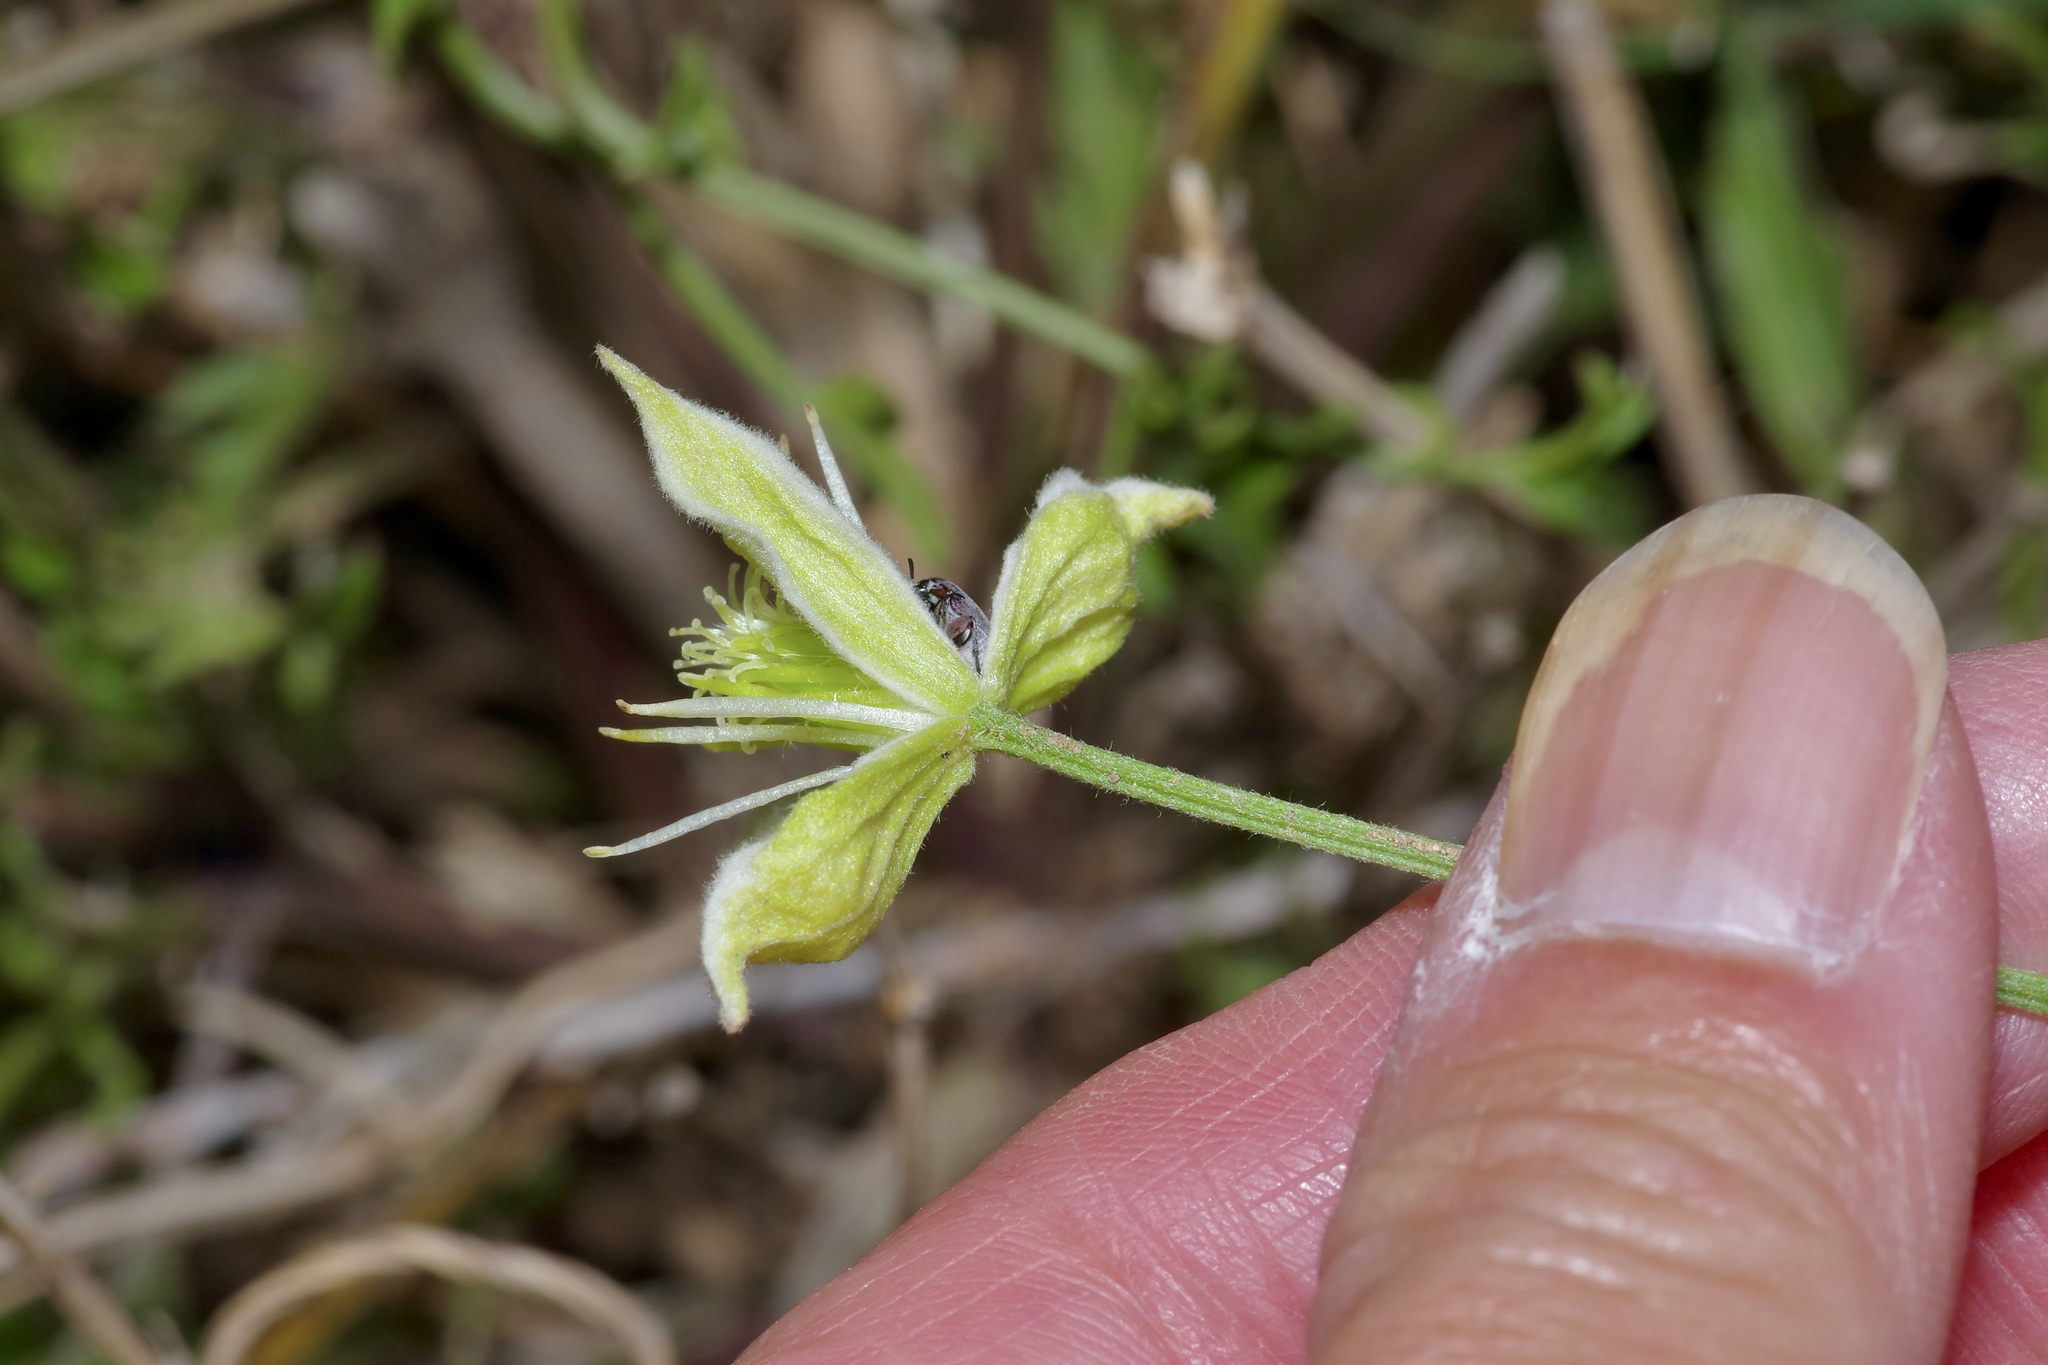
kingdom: Plantae
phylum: Tracheophyta
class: Magnoliopsida
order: Ranunculales
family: Ranunculaceae
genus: Clematis
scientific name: Clematis drummondii
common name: Texas virgin's bower
